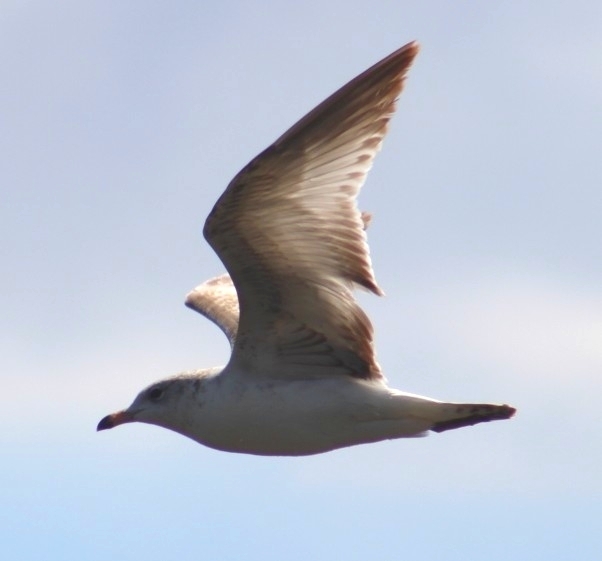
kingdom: Animalia
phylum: Chordata
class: Aves
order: Charadriiformes
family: Laridae
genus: Larus
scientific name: Larus delawarensis
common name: Ring-billed gull
